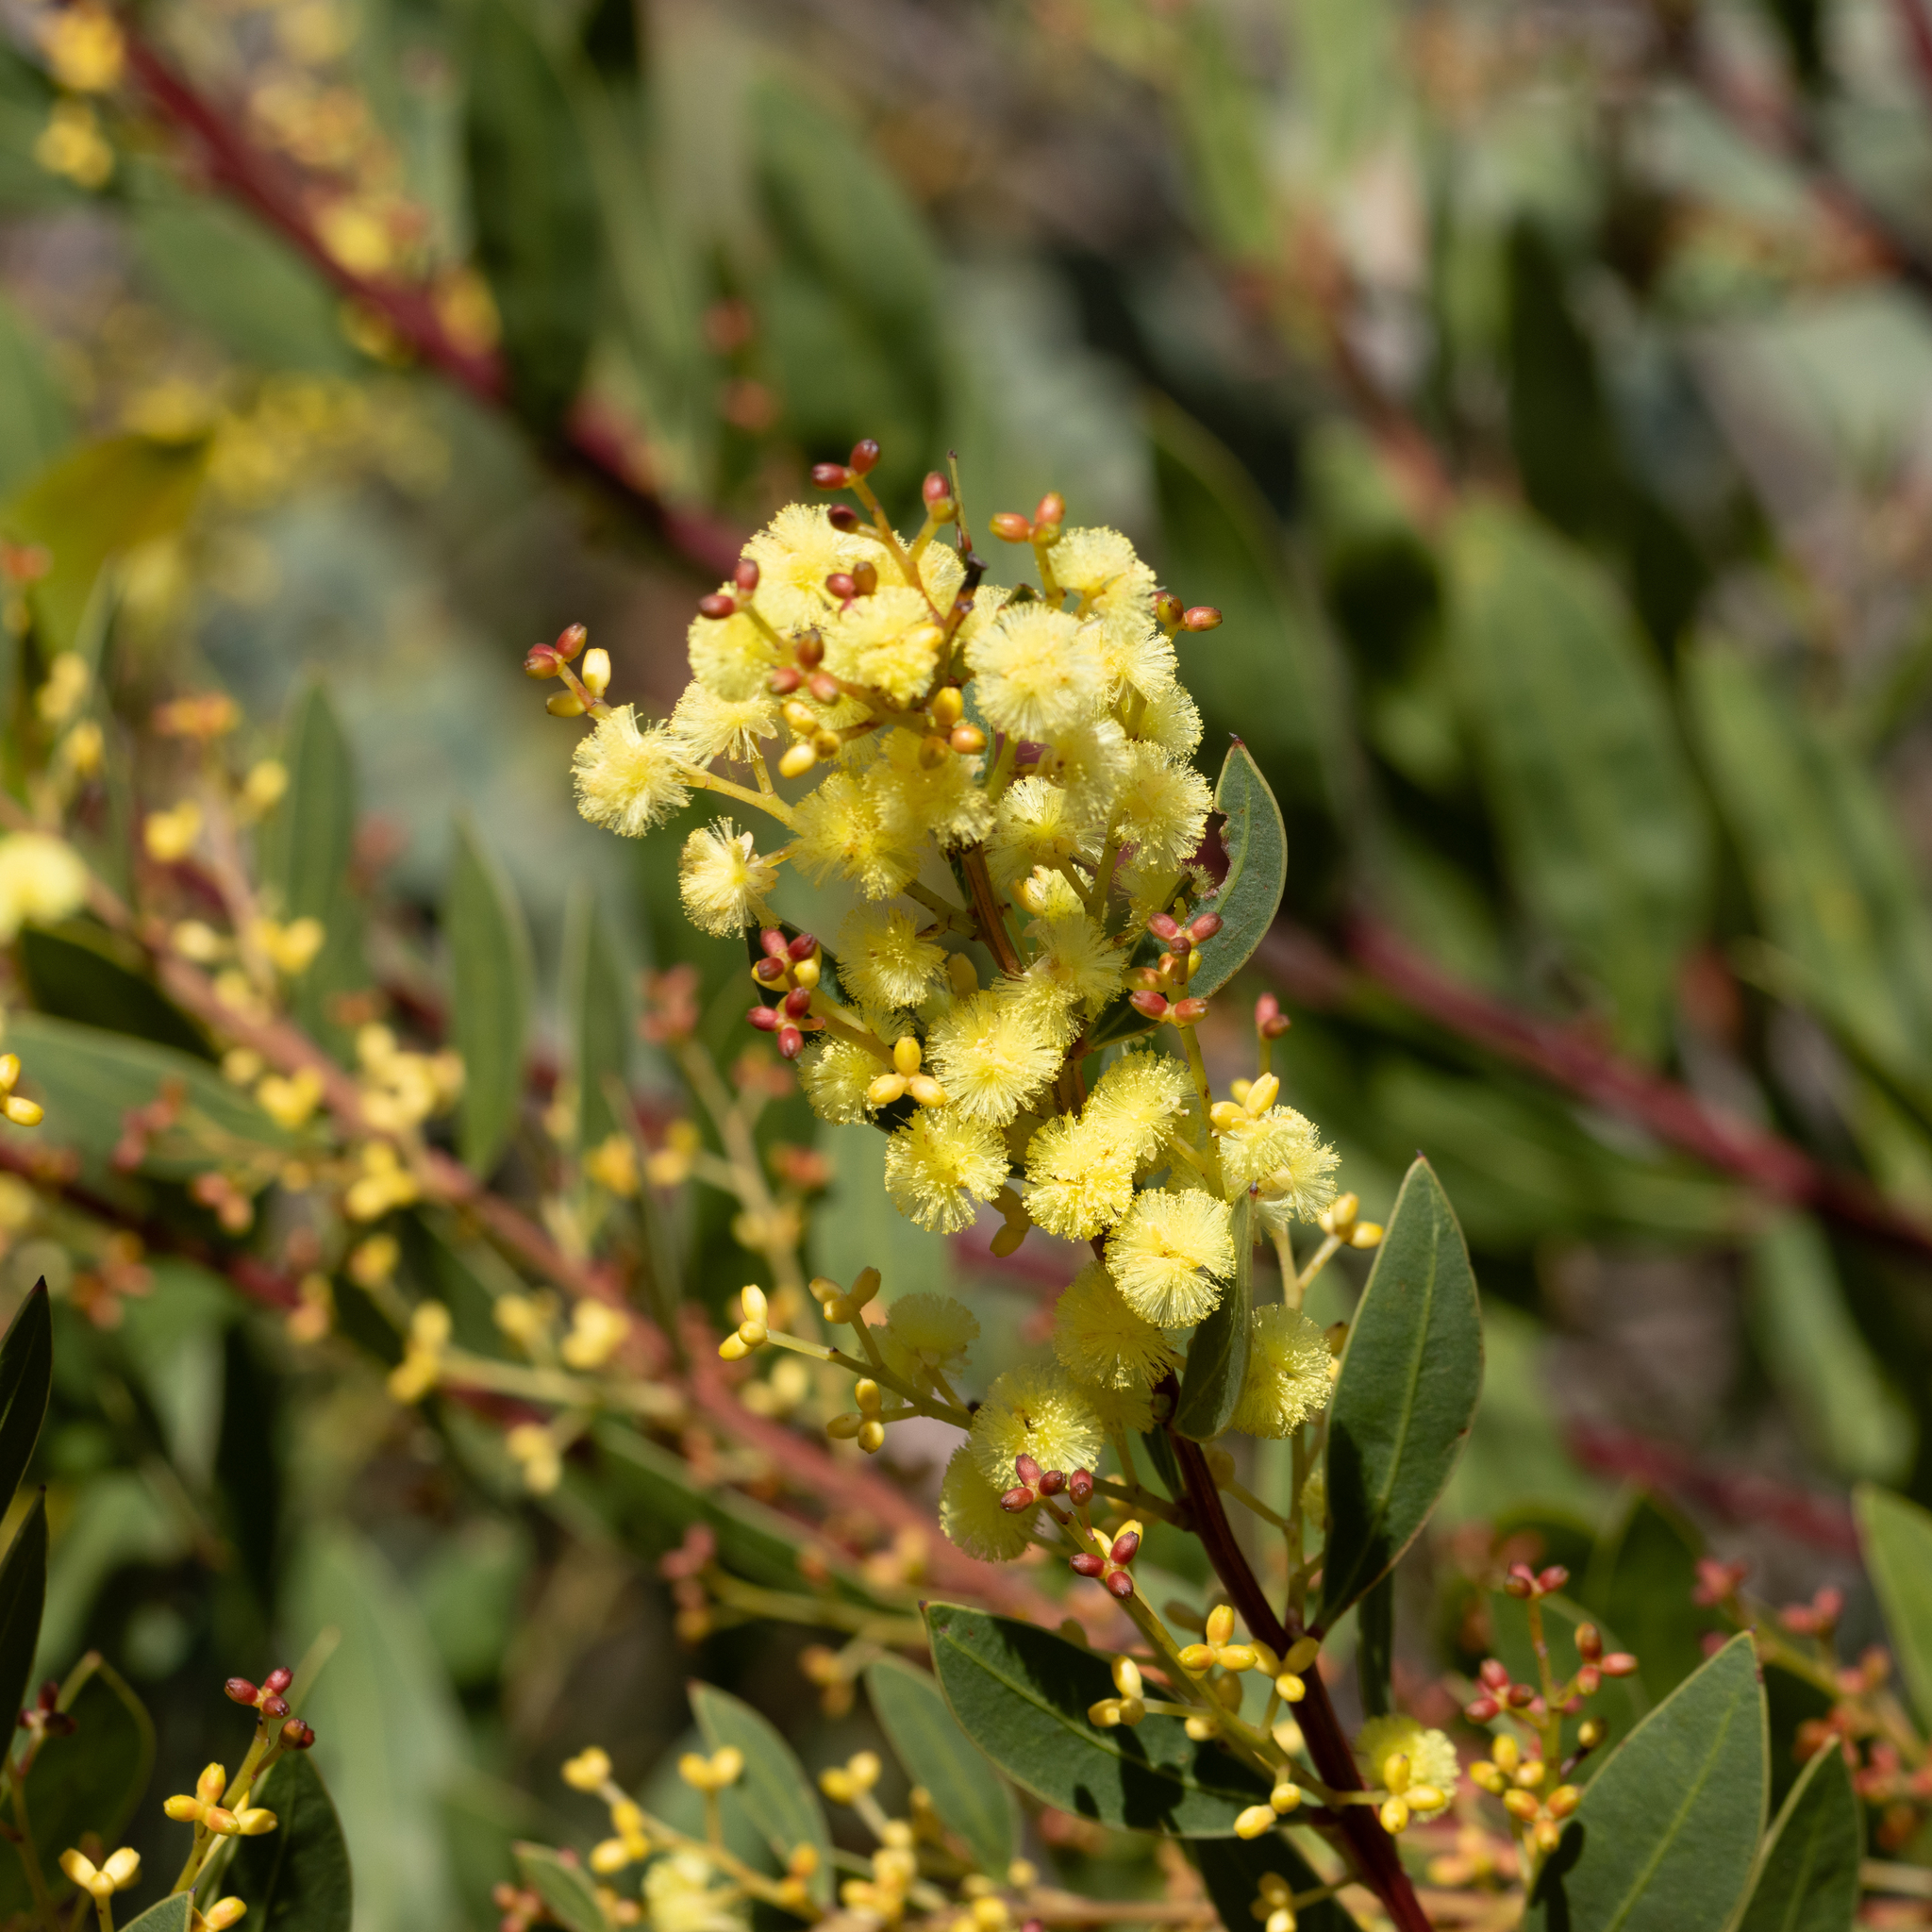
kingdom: Plantae
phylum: Tracheophyta
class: Magnoliopsida
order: Fabales
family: Fabaceae
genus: Acacia
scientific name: Acacia myrtifolia
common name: Myrtle wattle
